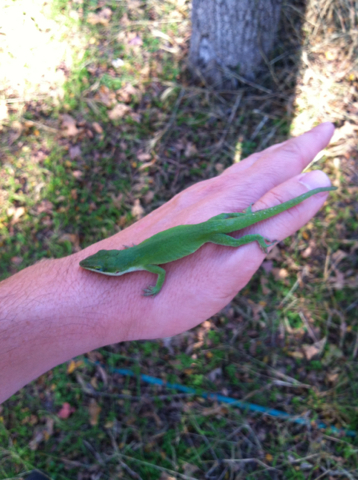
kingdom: Animalia
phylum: Chordata
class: Squamata
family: Dactyloidae
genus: Anolis
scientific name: Anolis carolinensis
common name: Green anole
